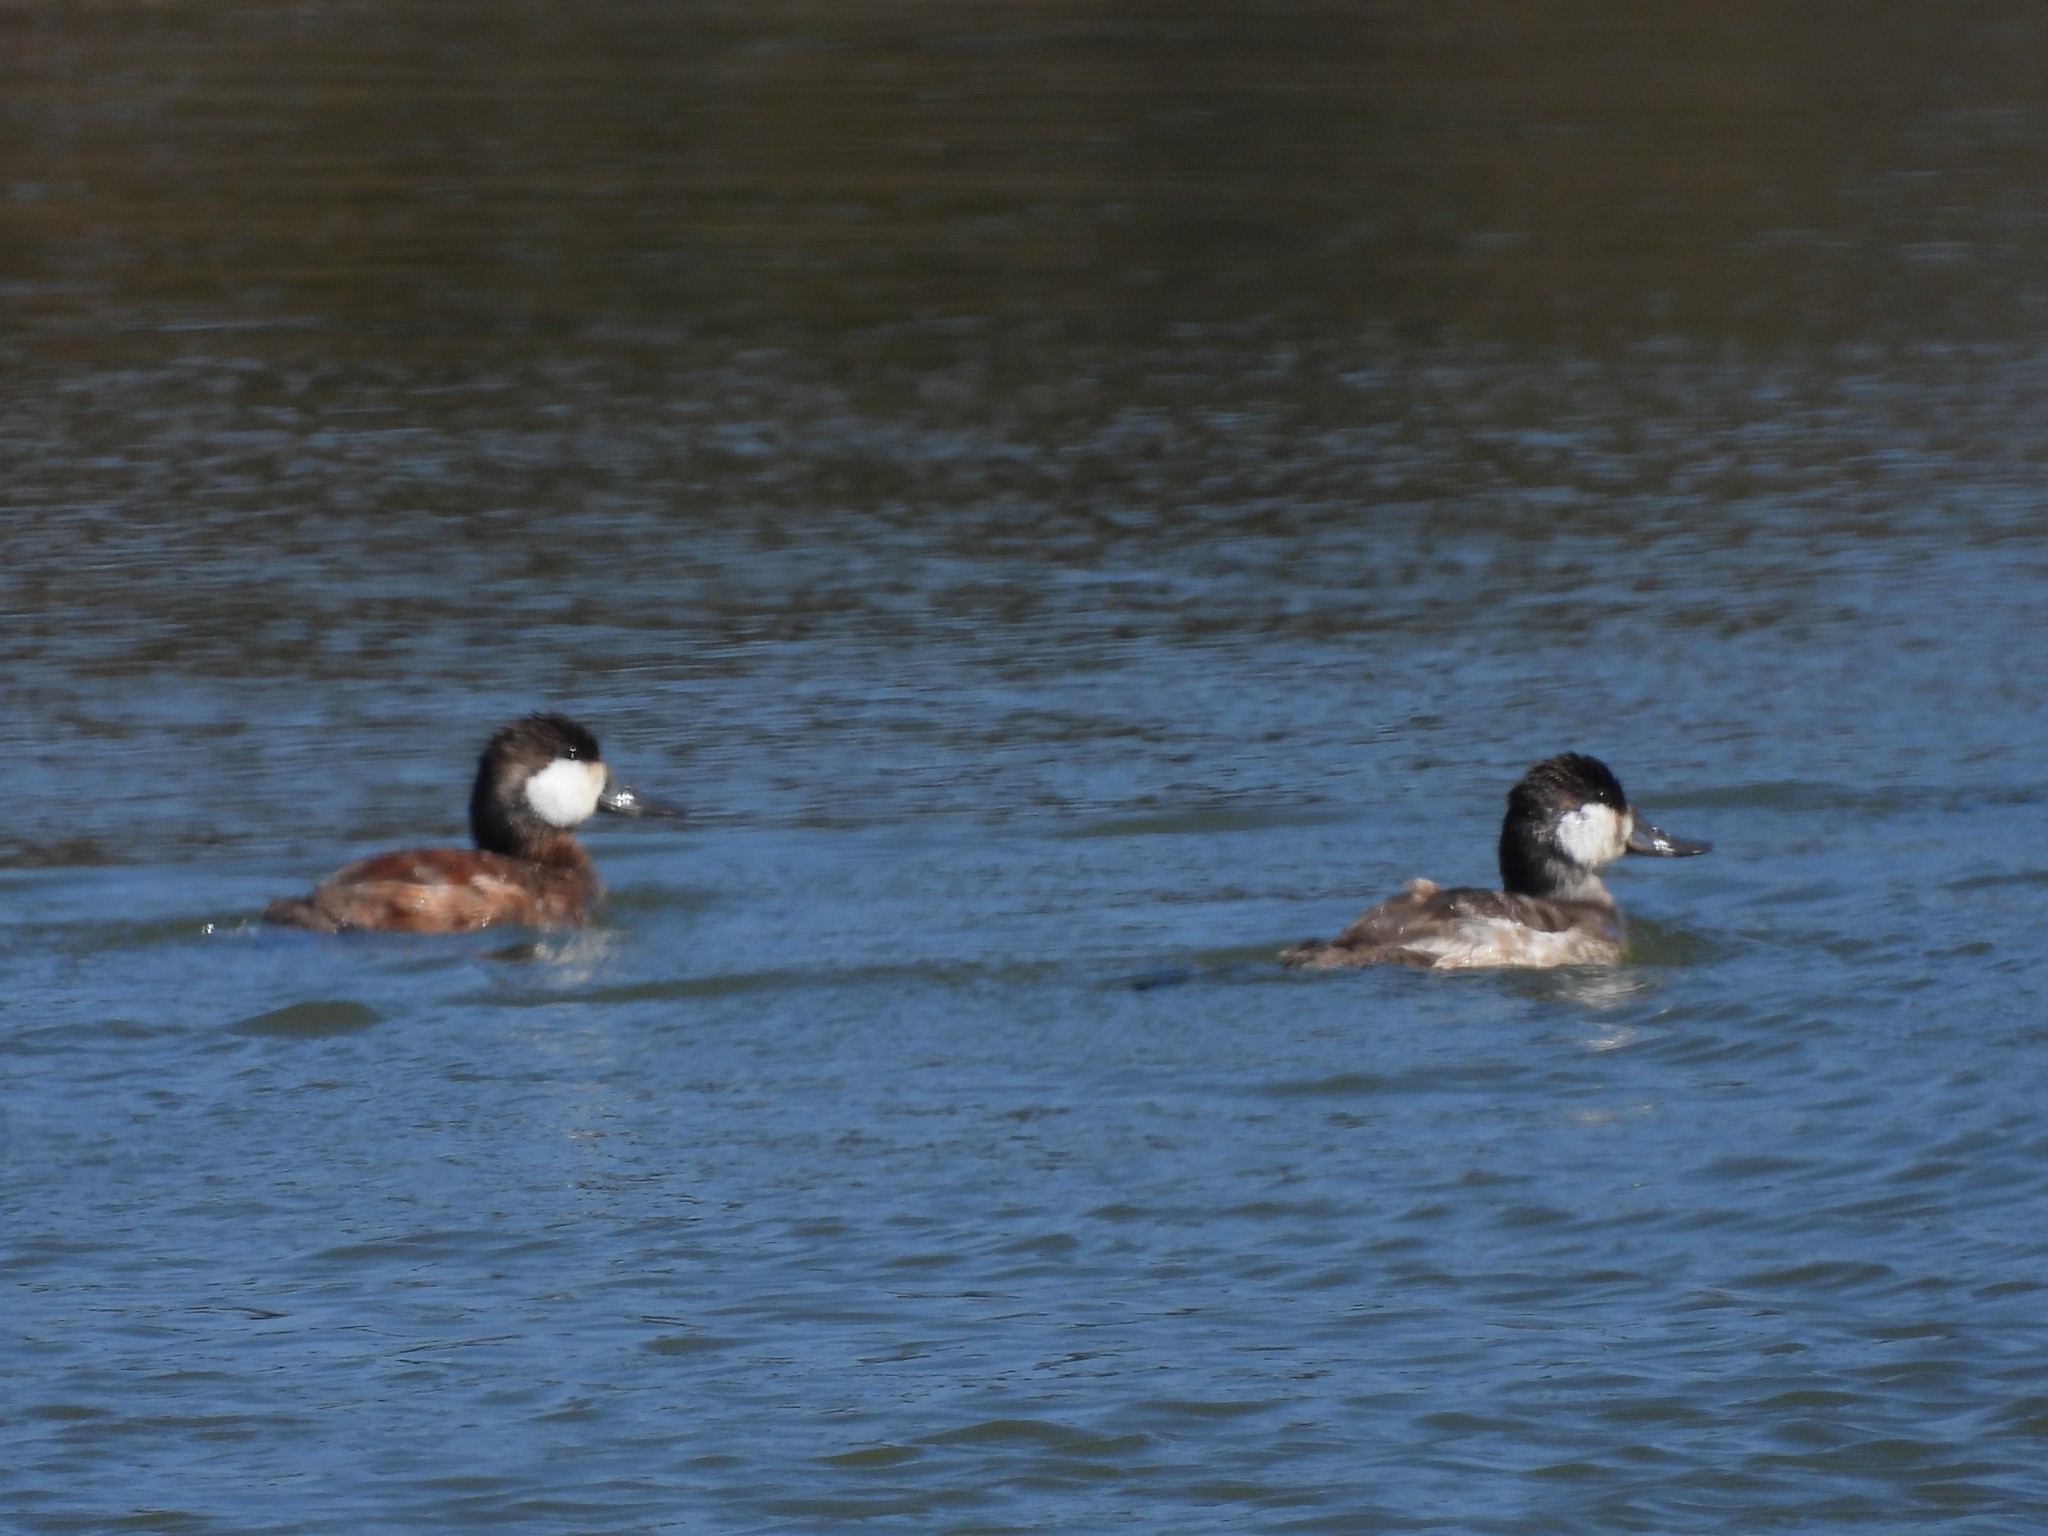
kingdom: Animalia
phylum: Chordata
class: Aves
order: Anseriformes
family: Anatidae
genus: Oxyura
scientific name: Oxyura jamaicensis
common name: Ruddy duck
